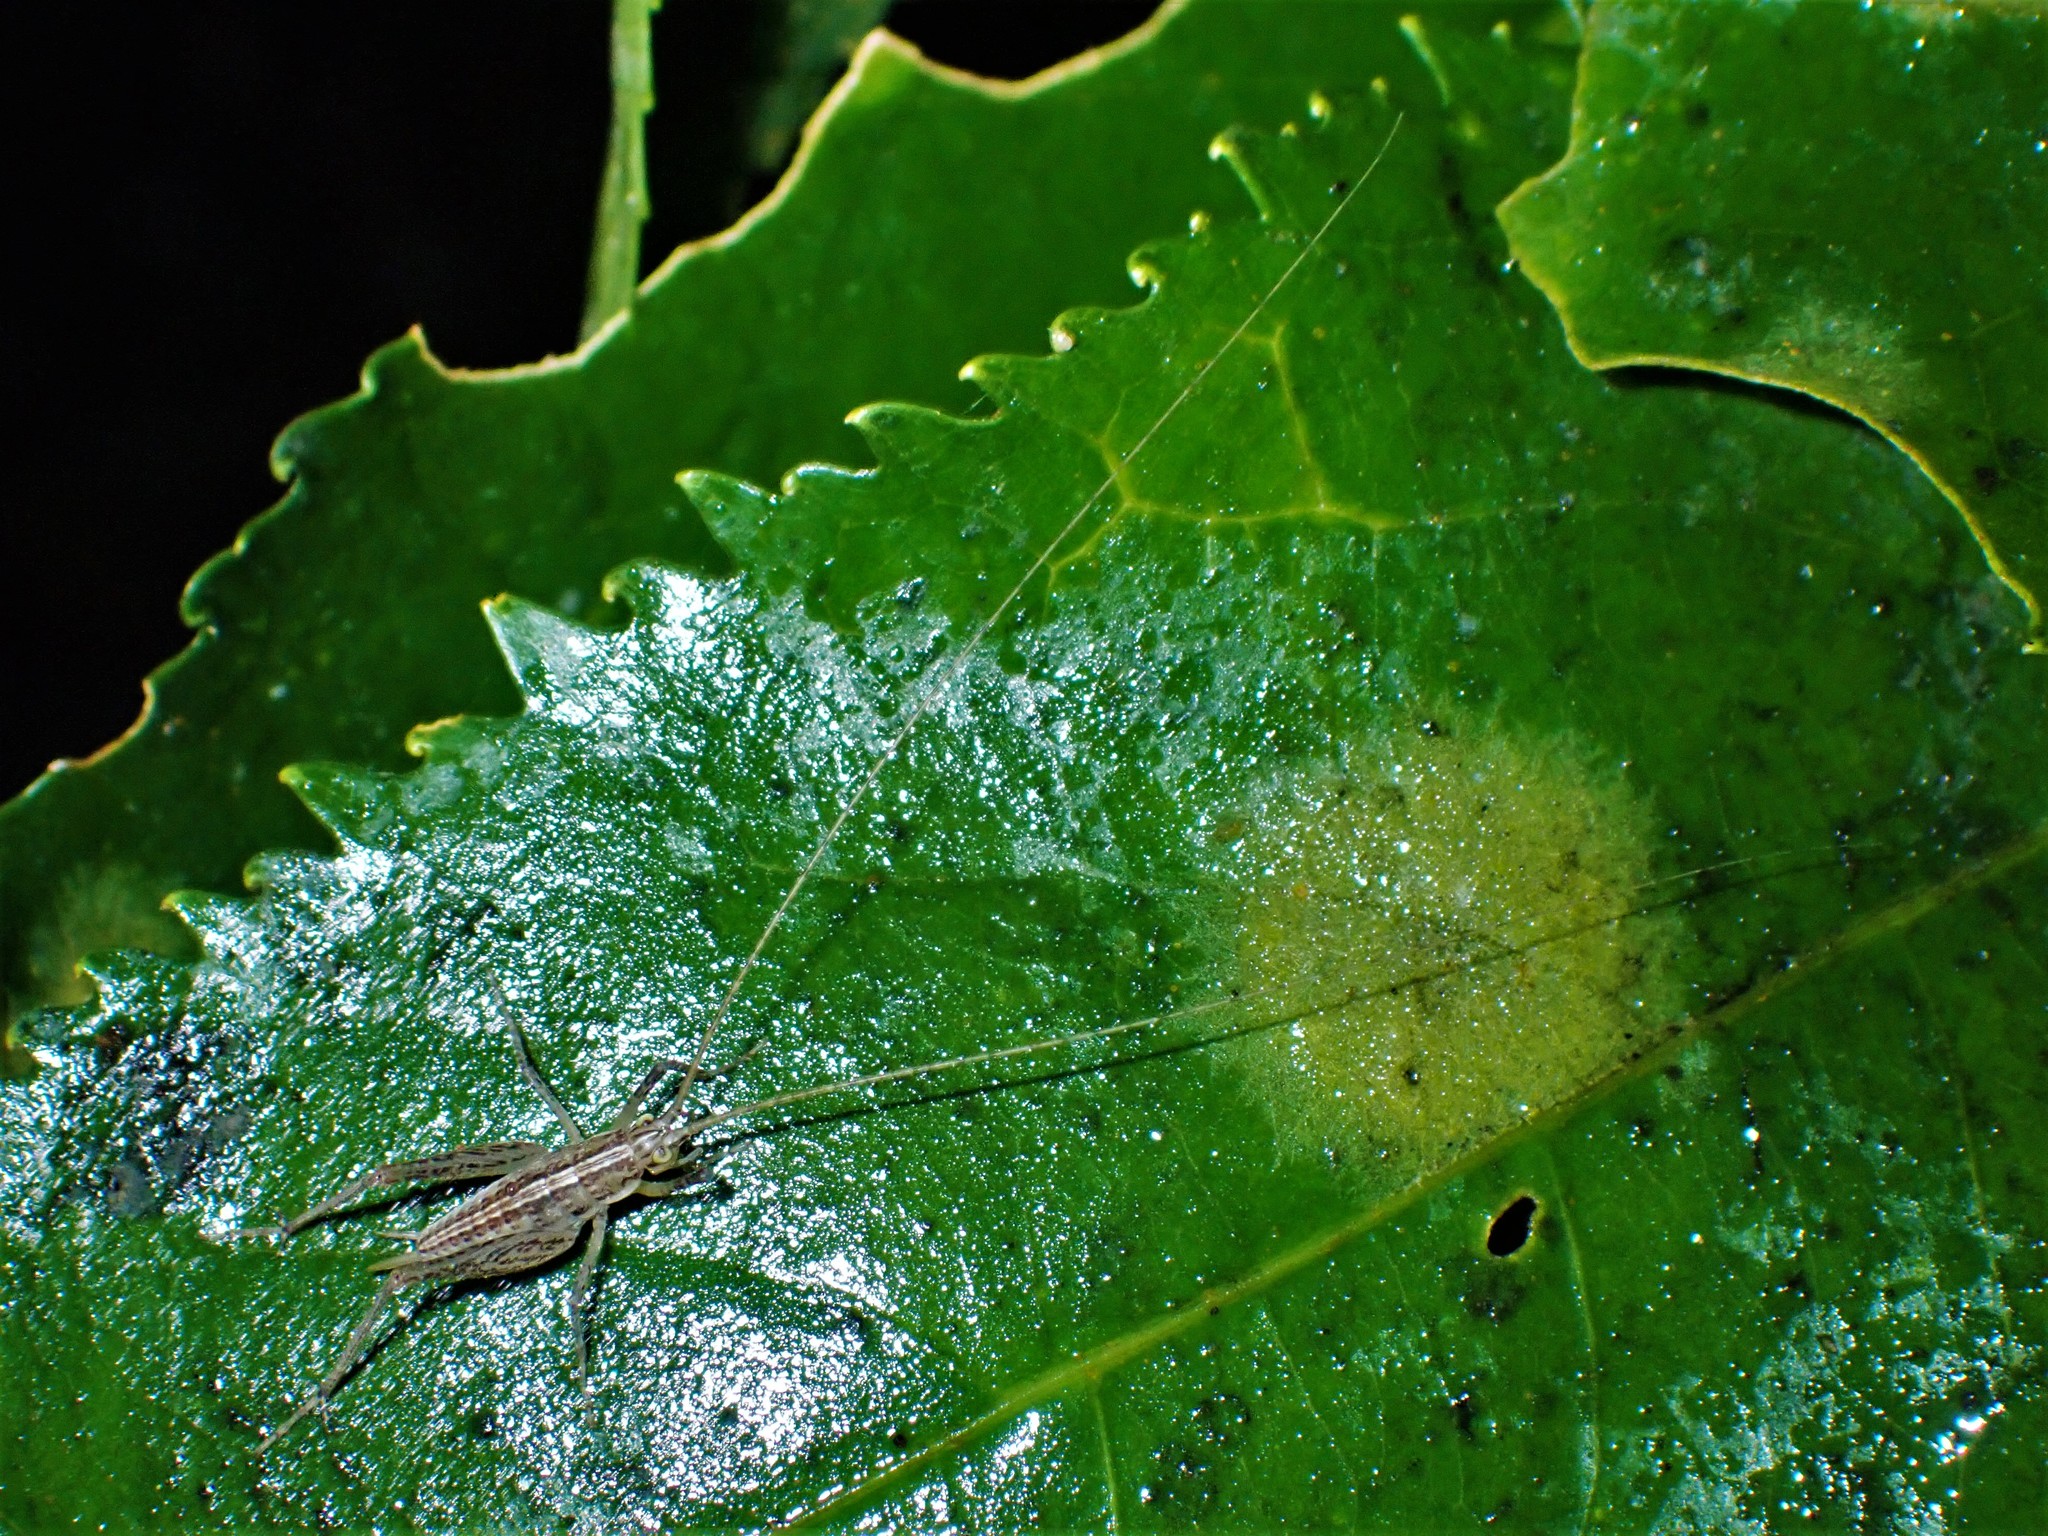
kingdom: Animalia
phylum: Arthropoda
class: Insecta
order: Orthoptera
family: Rhaphidophoridae
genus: Talitropsis
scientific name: Talitropsis poduroides
